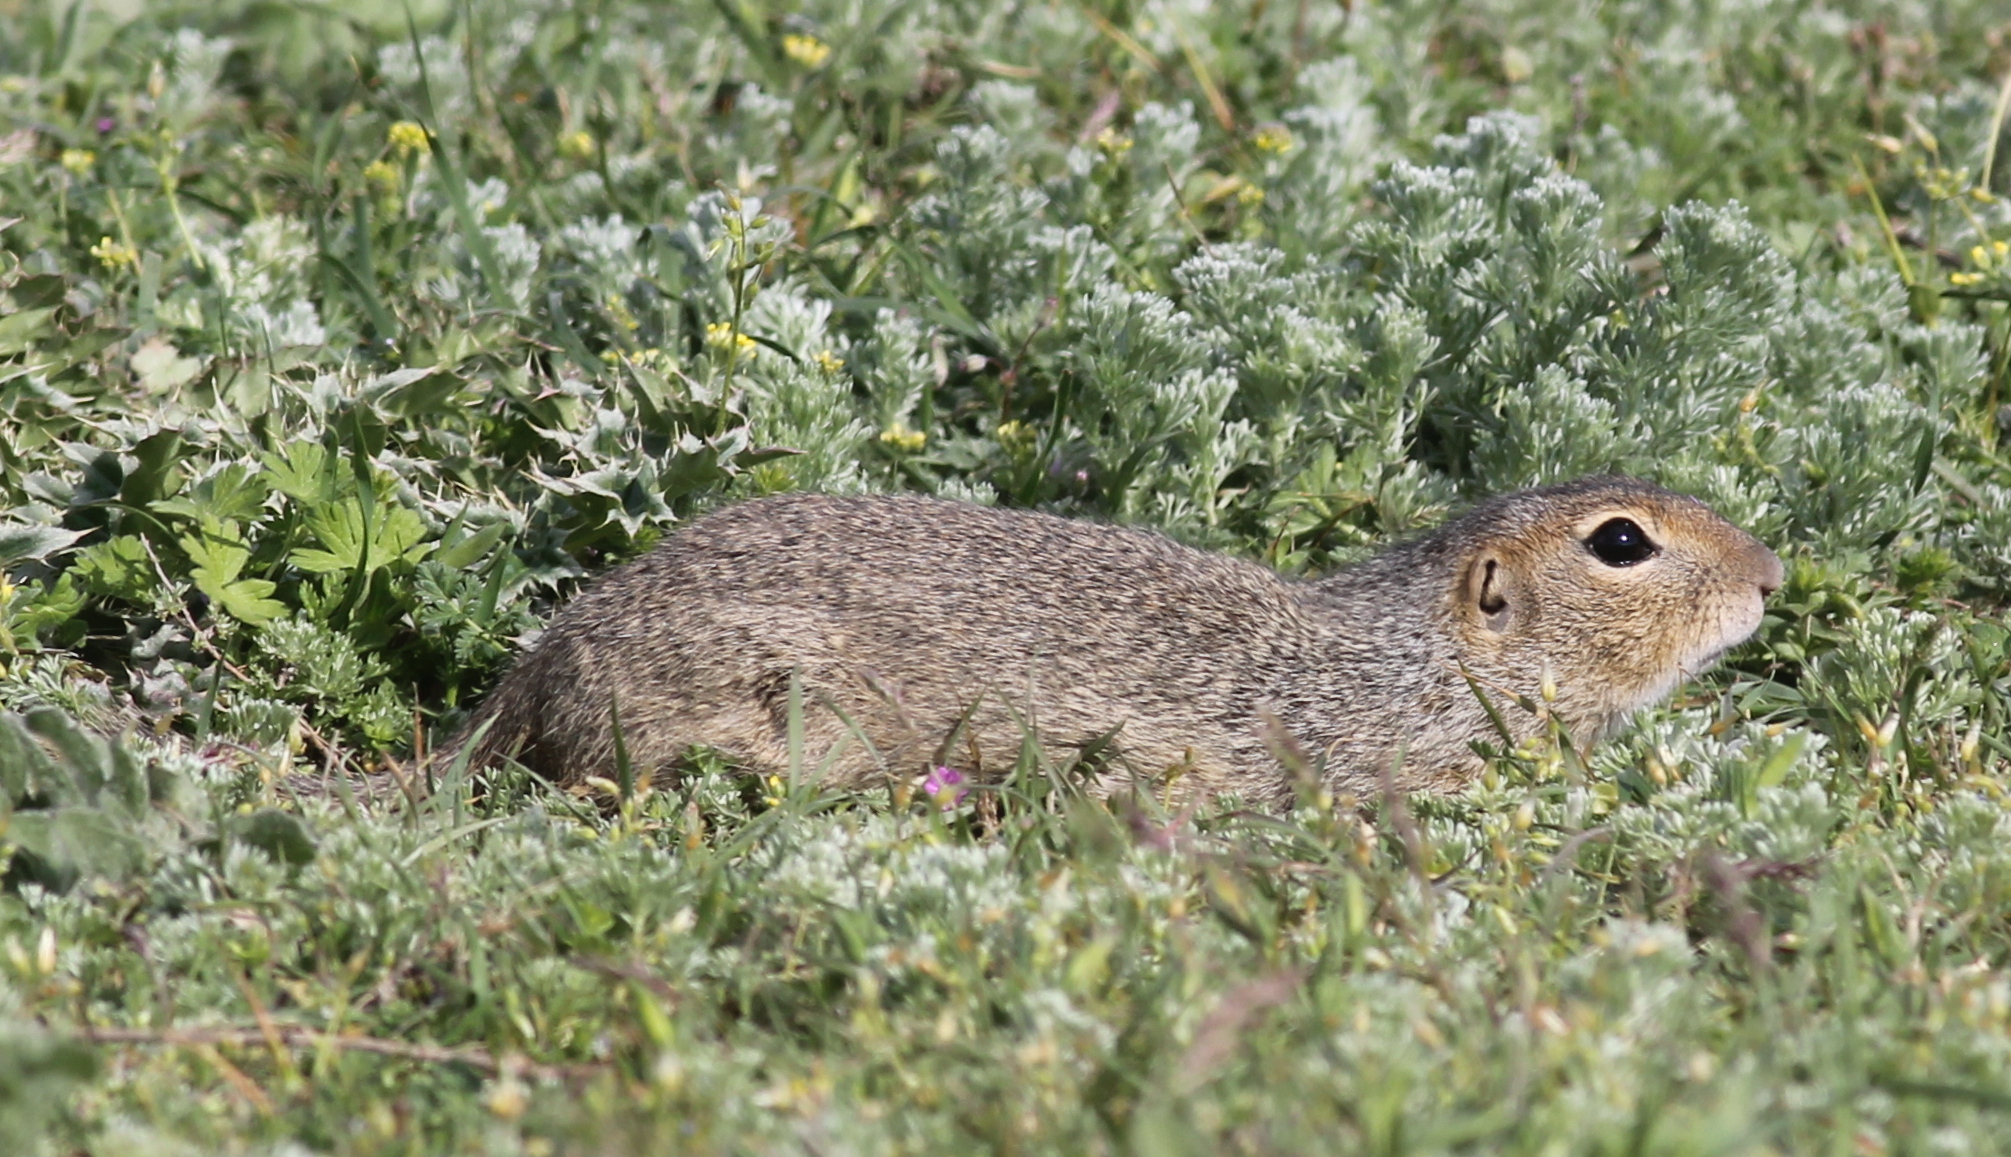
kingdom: Animalia
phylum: Chordata
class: Mammalia
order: Rodentia
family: Sciuridae
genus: Spermophilus
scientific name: Spermophilus citellus
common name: European ground squirrel
